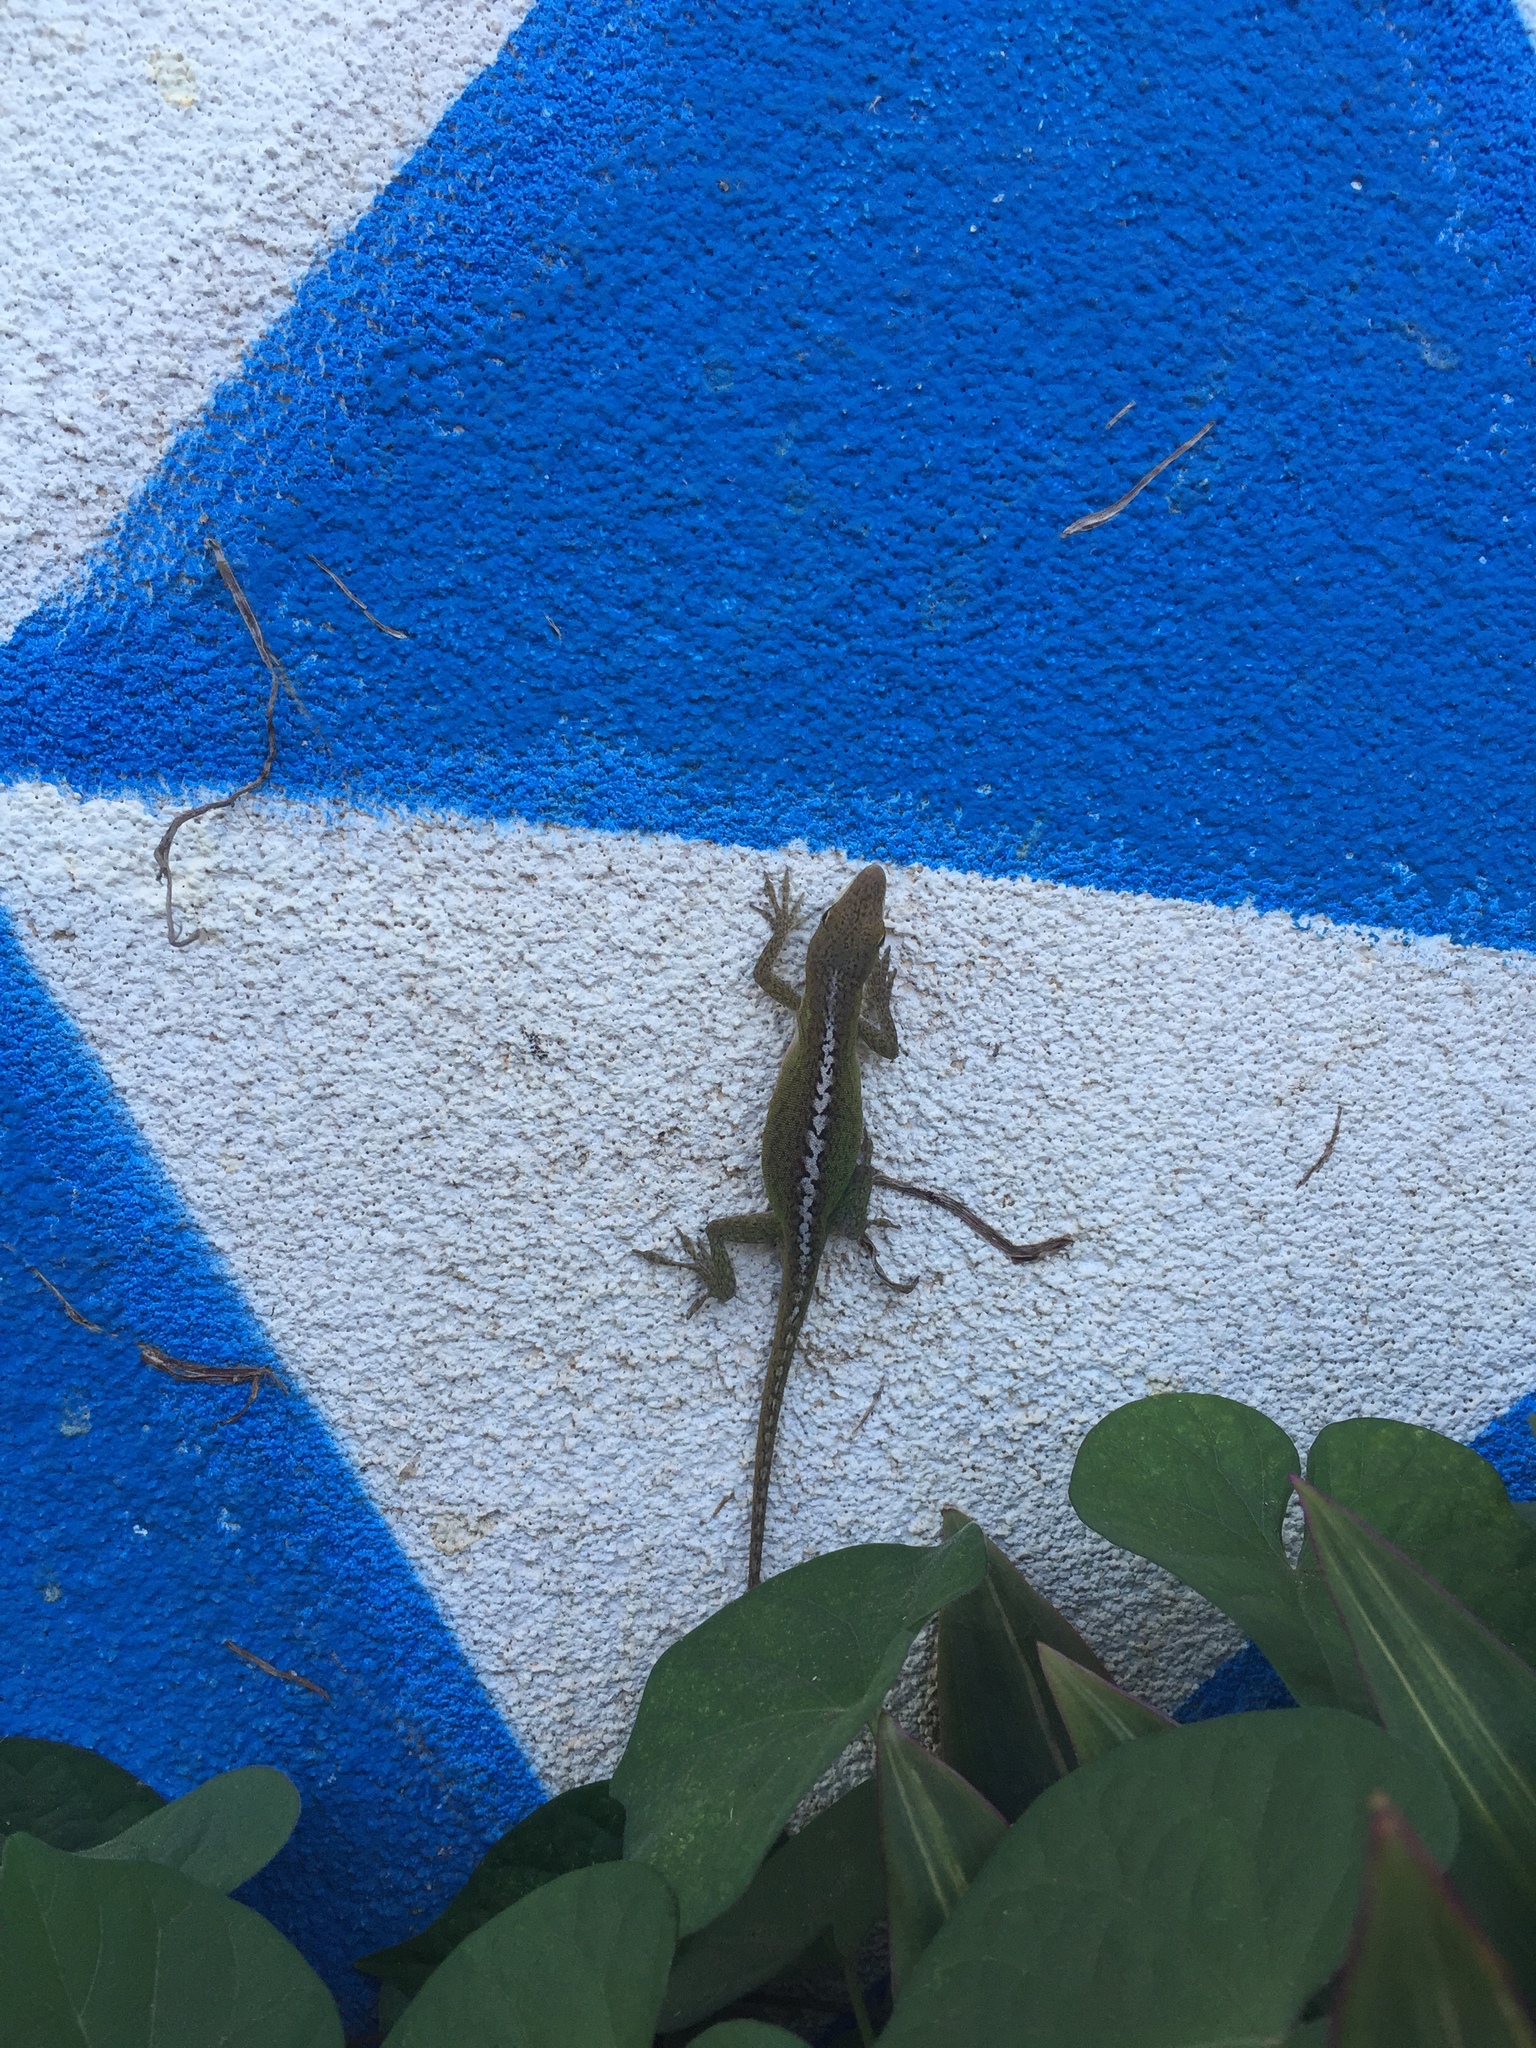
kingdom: Animalia
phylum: Chordata
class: Squamata
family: Dactyloidae
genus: Anolis
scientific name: Anolis carolinensis
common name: Green anole
